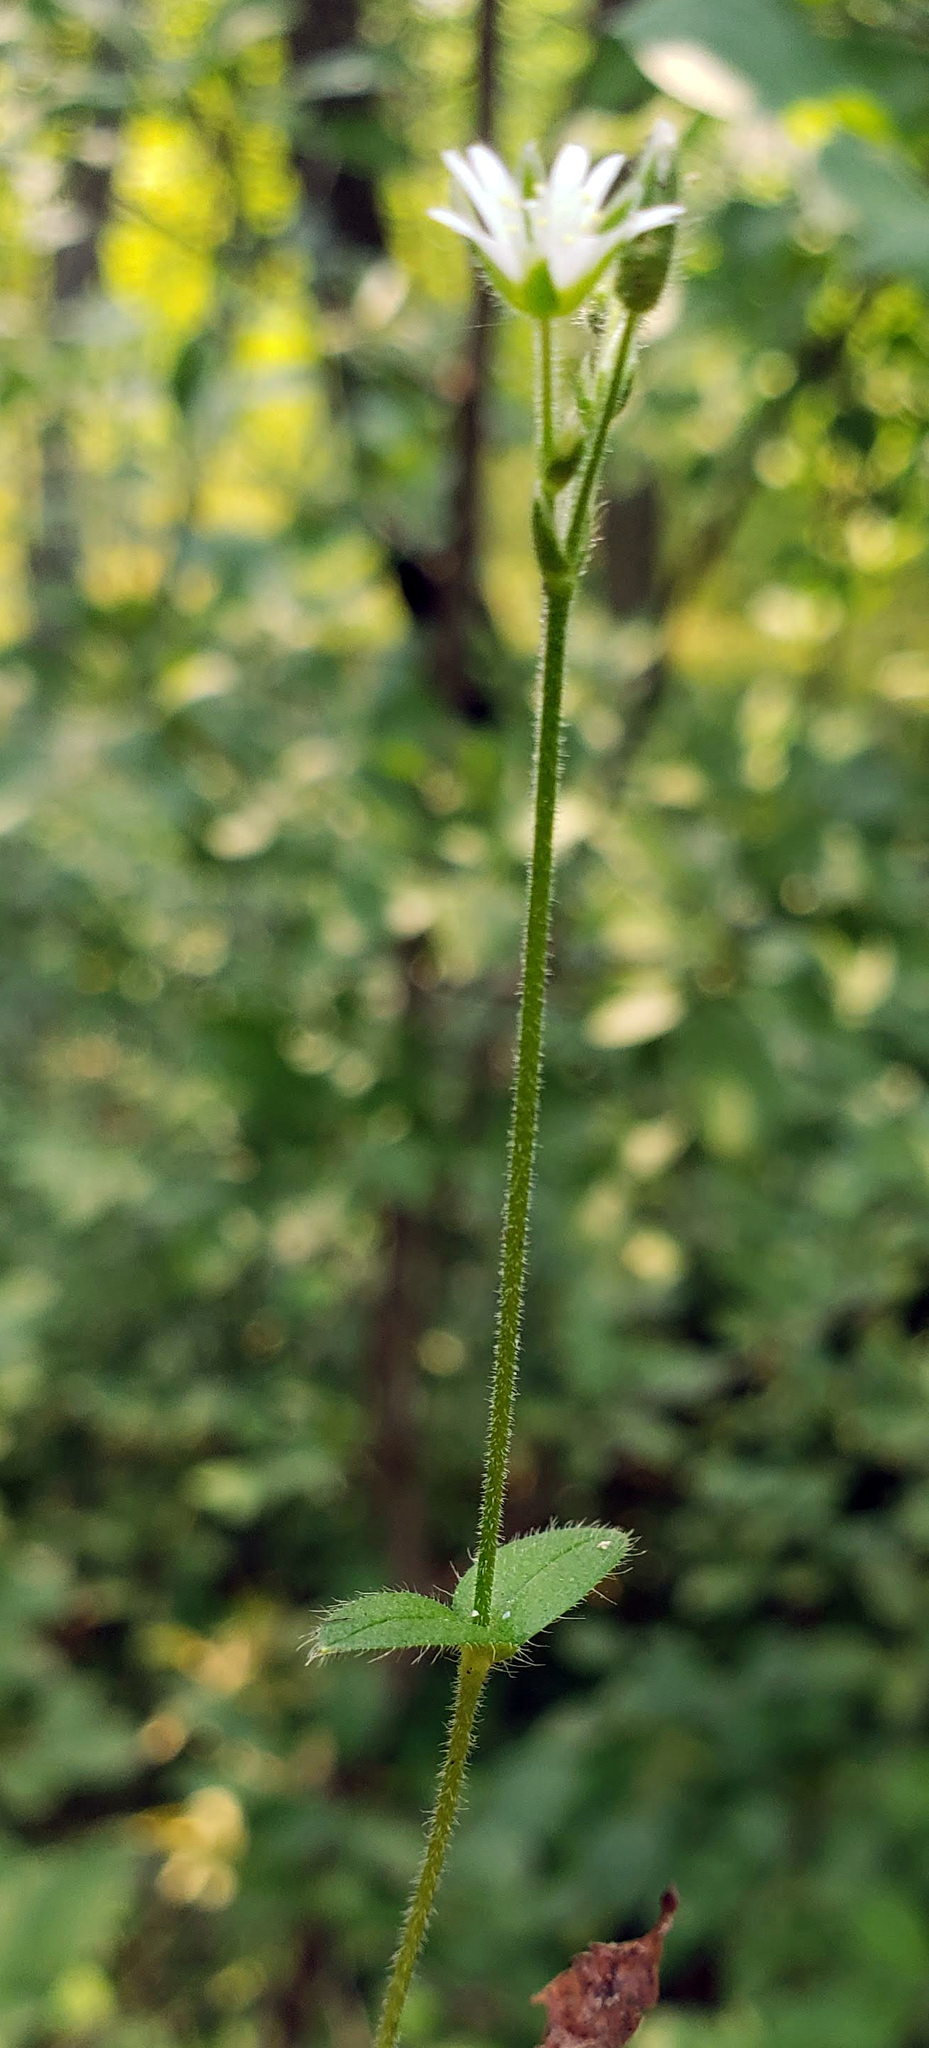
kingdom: Plantae
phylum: Tracheophyta
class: Magnoliopsida
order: Caryophyllales
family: Caryophyllaceae
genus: Cerastium
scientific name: Cerastium fontanum
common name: Common mouse-ear
